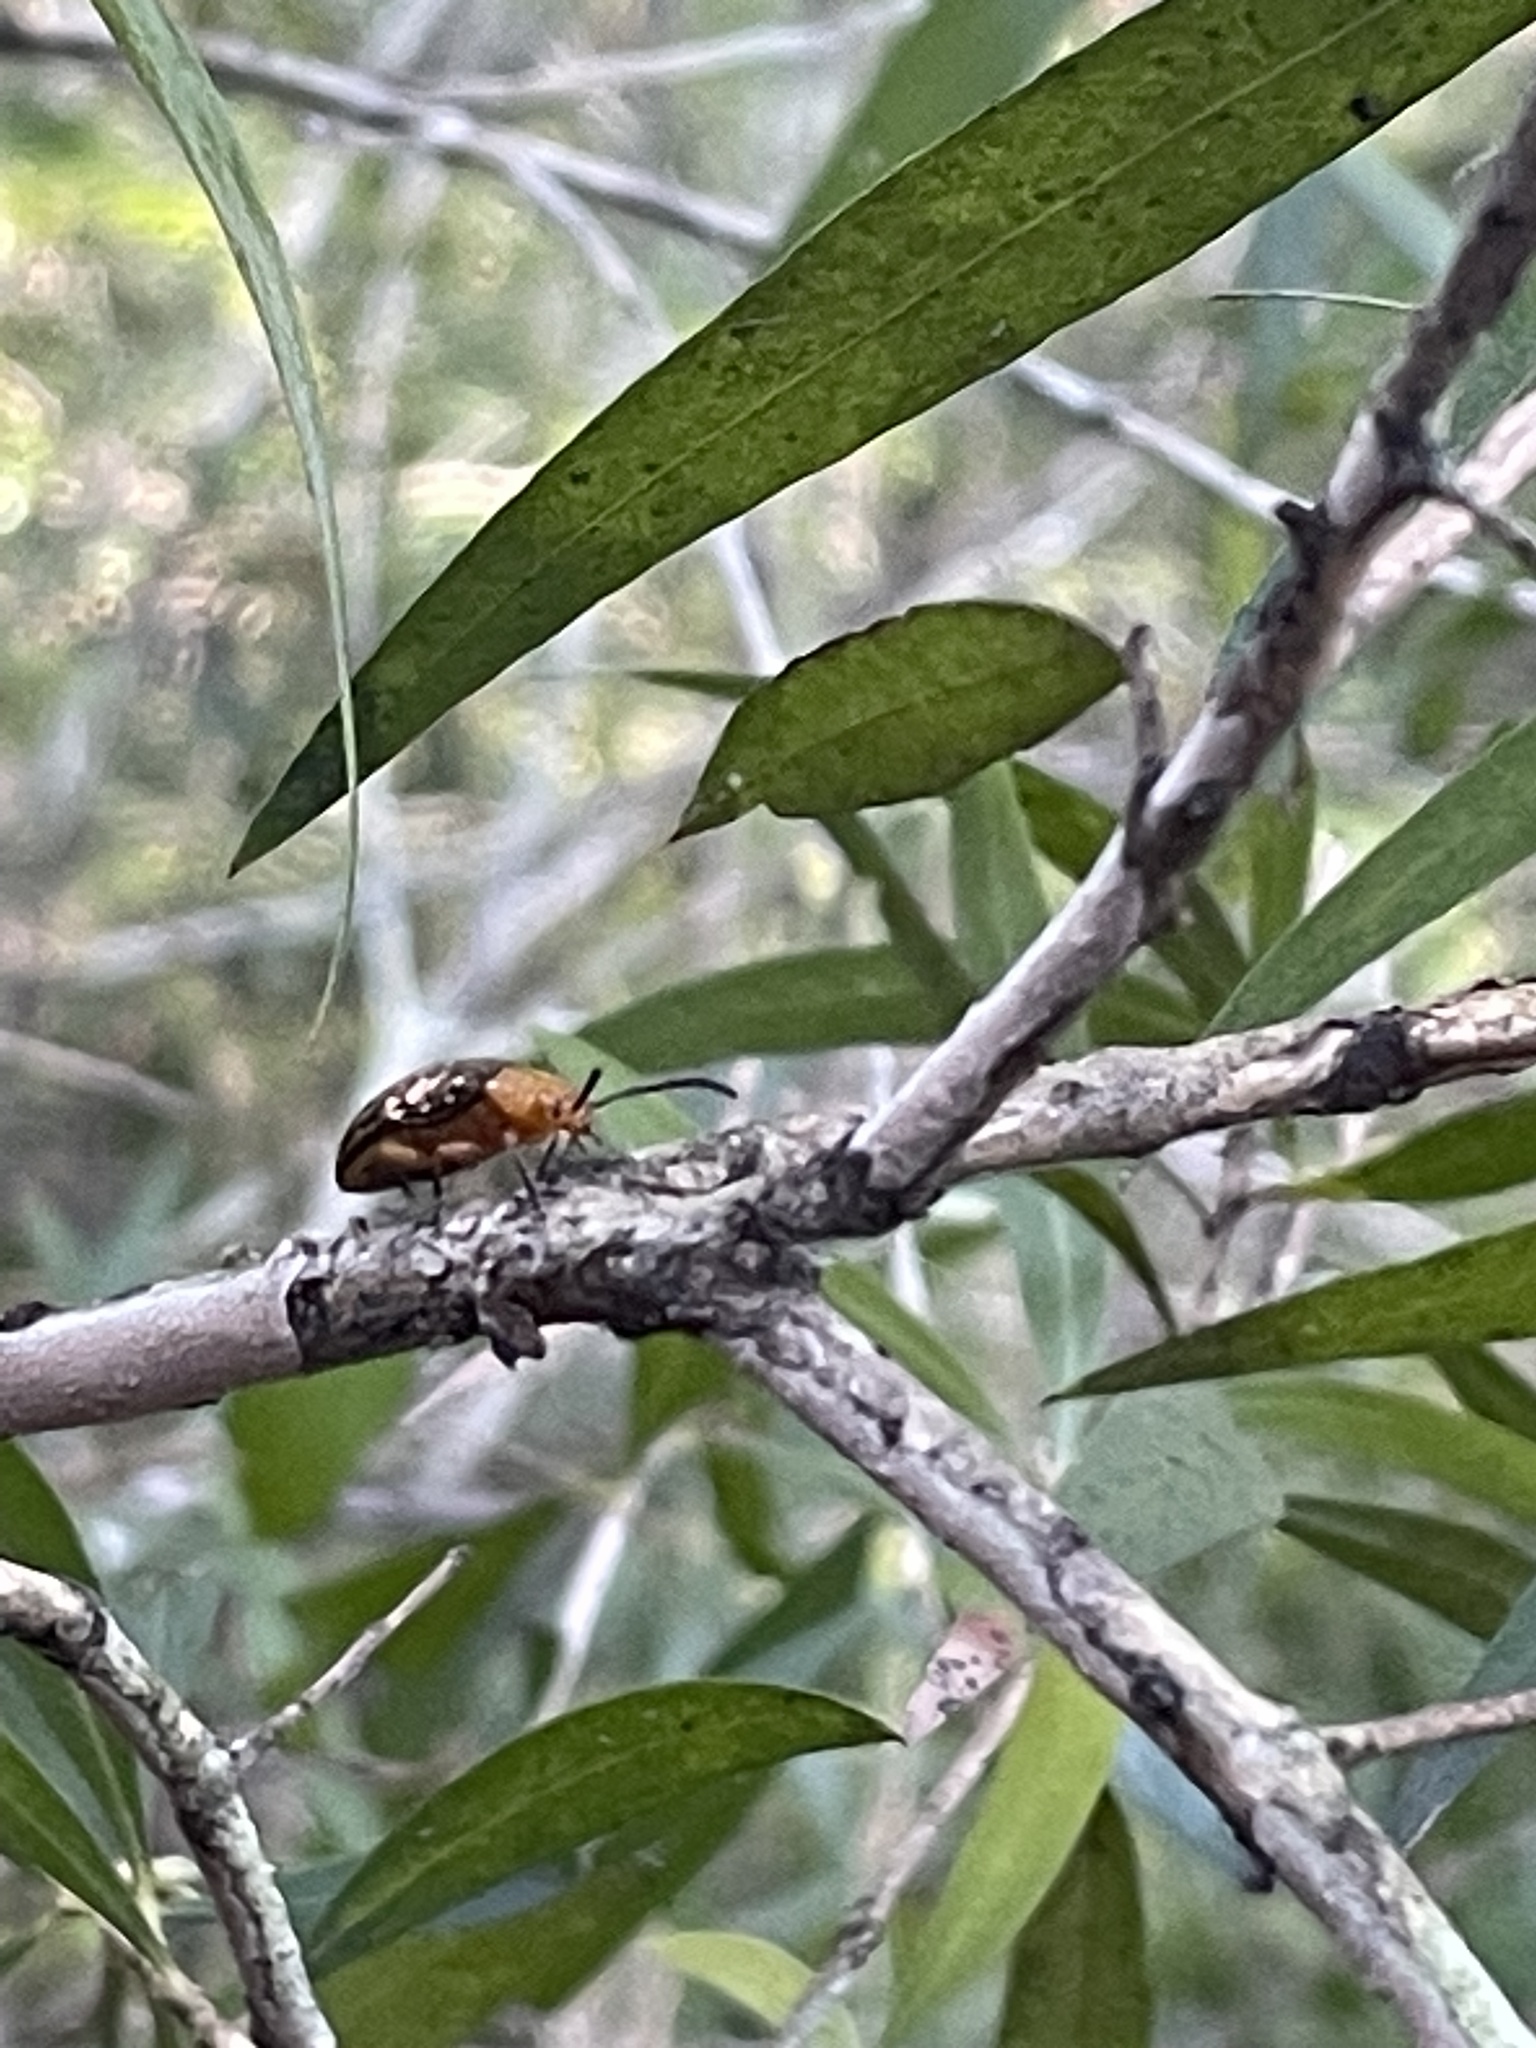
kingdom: Animalia
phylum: Arthropoda
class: Insecta
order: Coleoptera
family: Chrysomelidae
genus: Lamprolina
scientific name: Lamprolina
